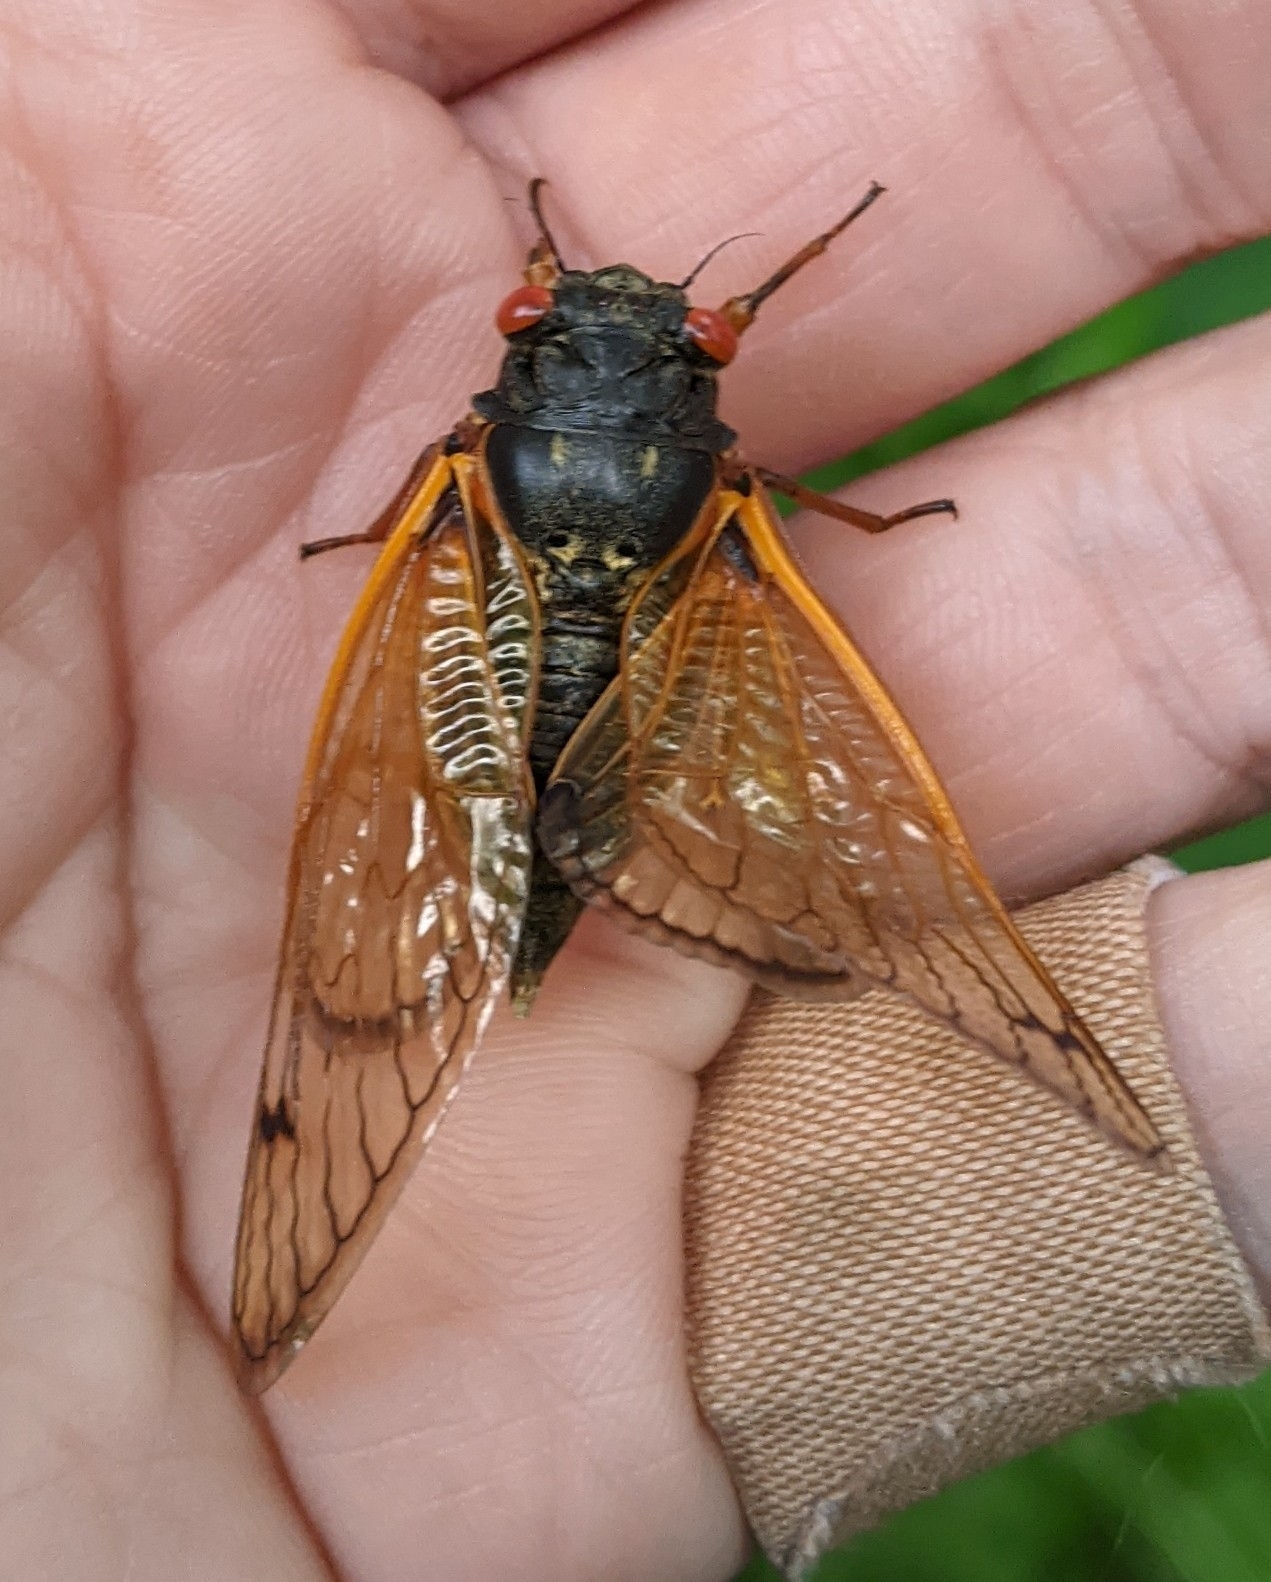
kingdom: Animalia
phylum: Arthropoda
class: Insecta
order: Hemiptera
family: Cicadidae
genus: Magicicada
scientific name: Magicicada cassini
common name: Cassin's 17-year cicada
